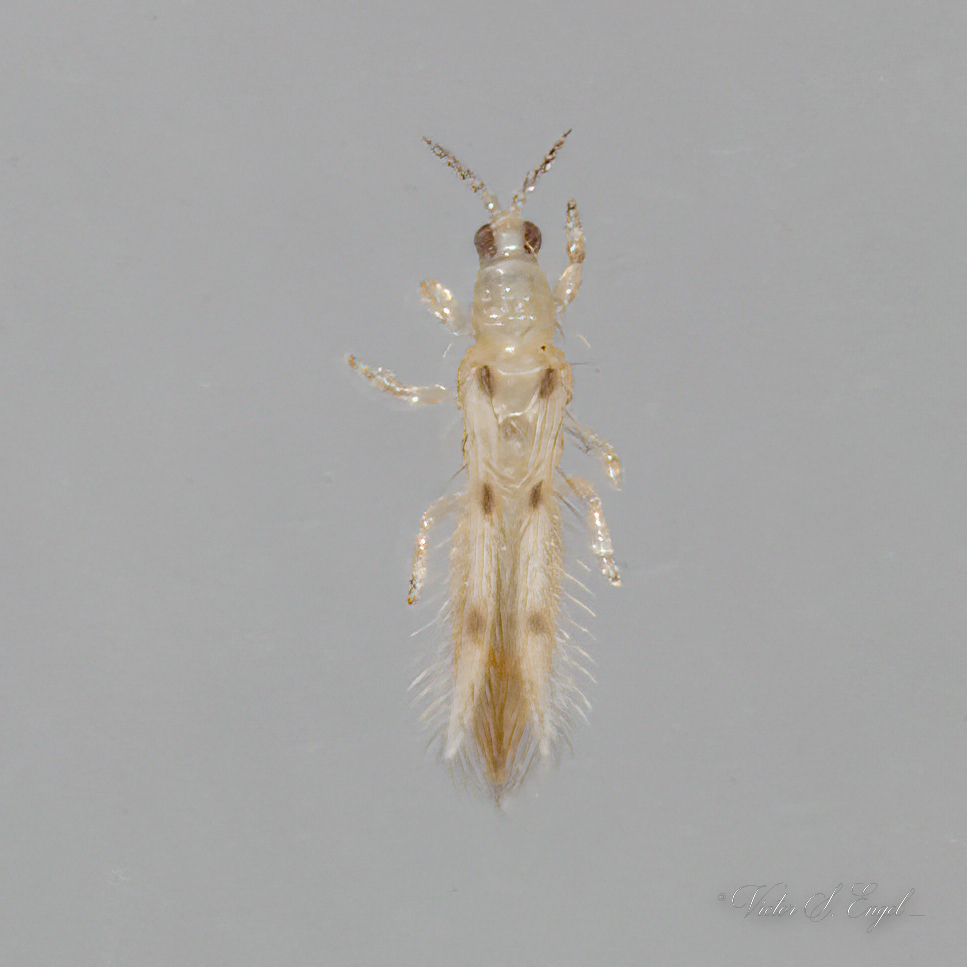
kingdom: Animalia
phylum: Arthropoda
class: Insecta
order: Thysanoptera
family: Thripidae
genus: Scolothrips
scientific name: Scolothrips sexmaculatus
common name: Common thrip
